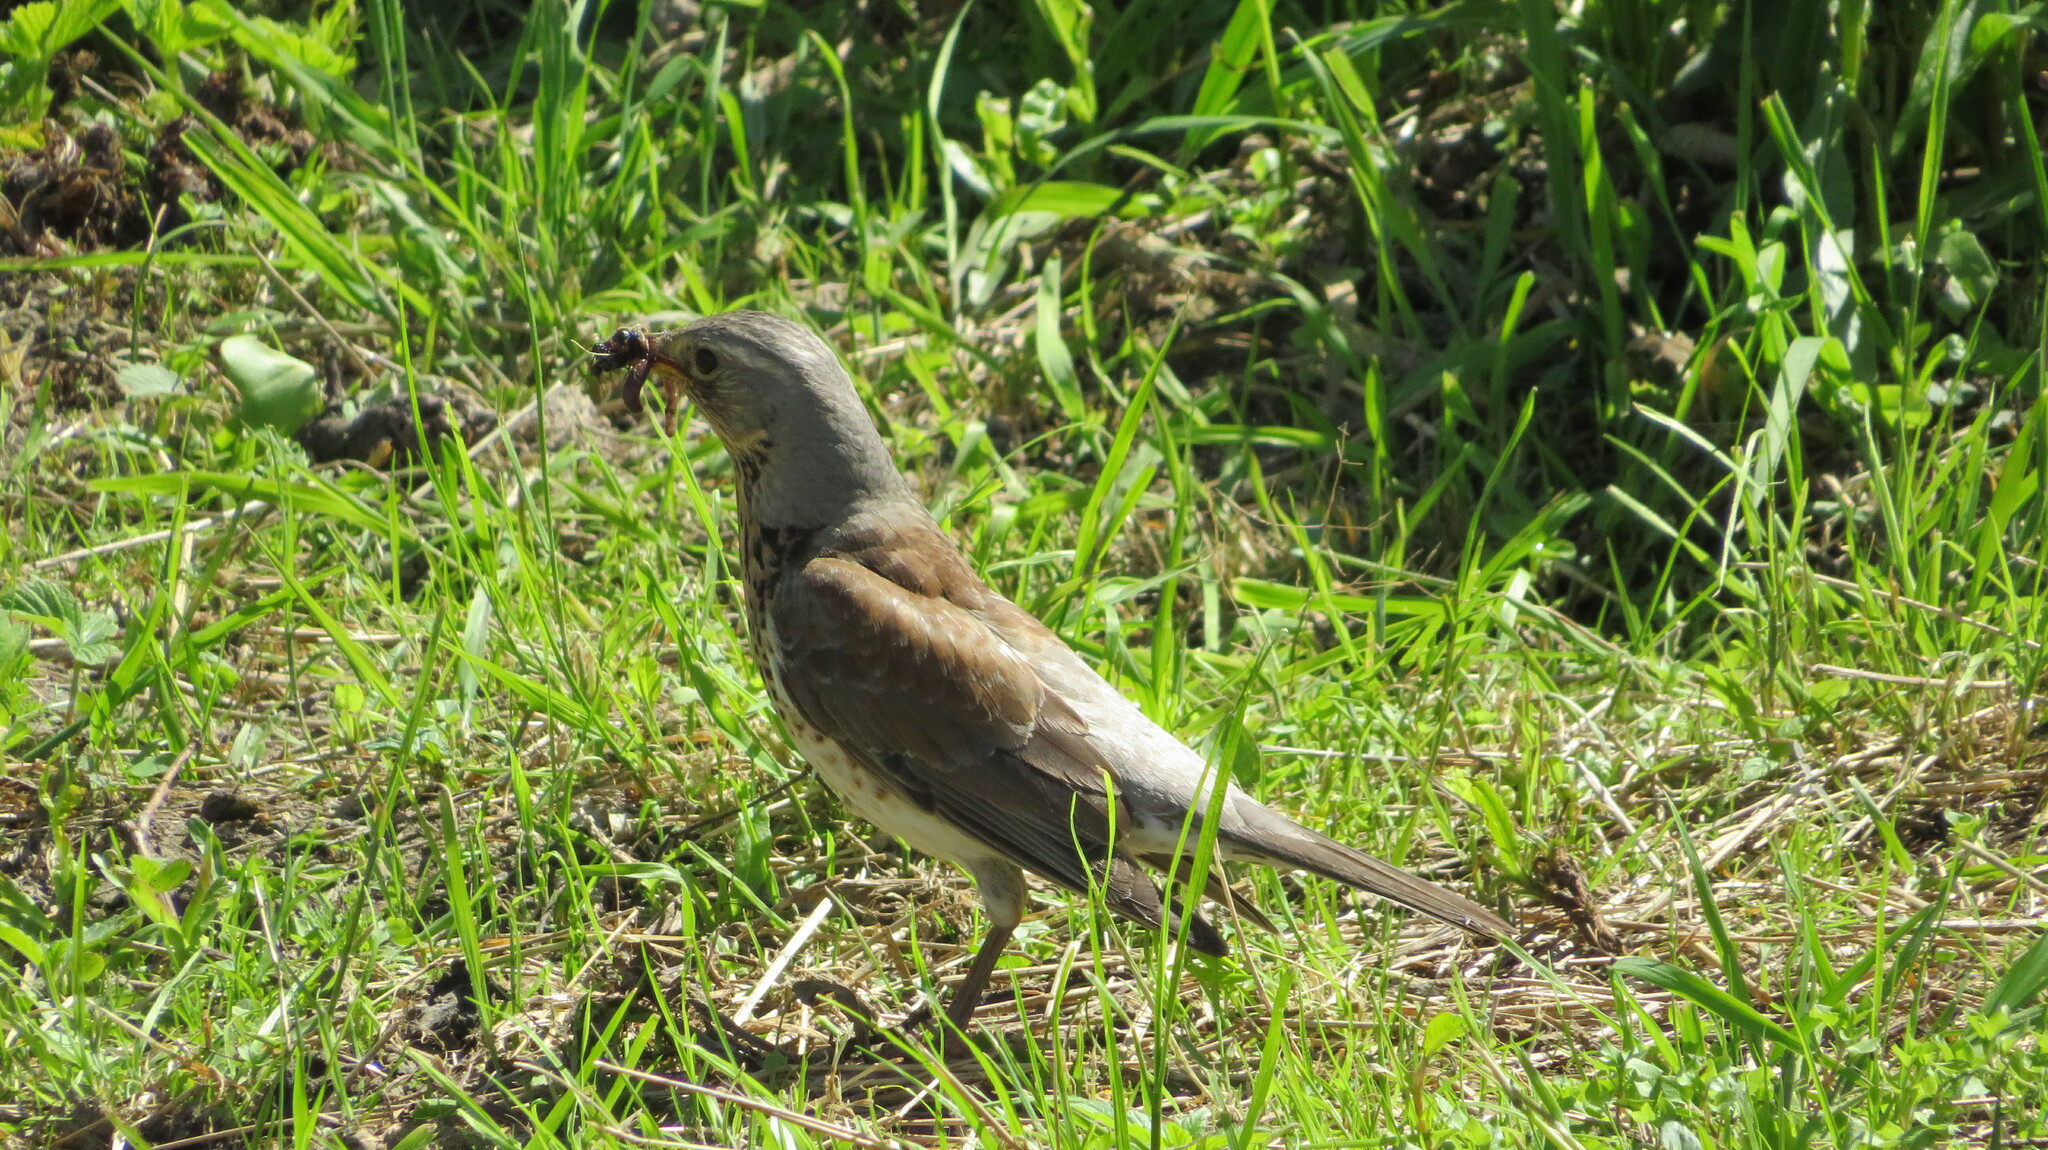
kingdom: Animalia
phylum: Chordata
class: Aves
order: Passeriformes
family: Turdidae
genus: Turdus
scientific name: Turdus pilaris
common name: Fieldfare
